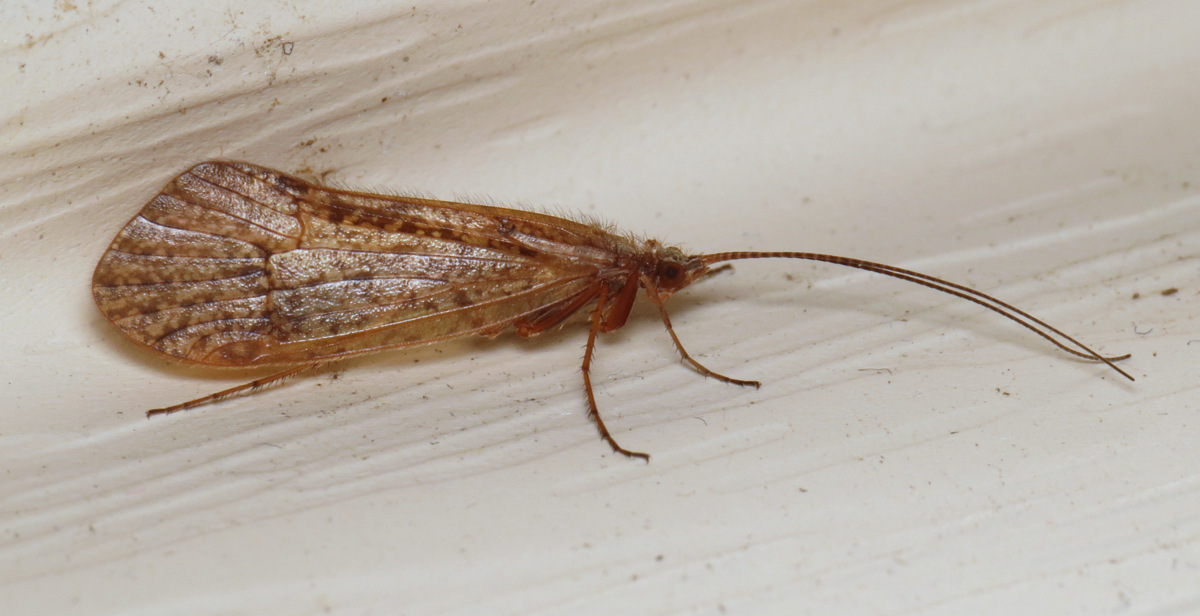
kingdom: Animalia
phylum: Arthropoda
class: Insecta
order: Trichoptera
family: Limnephilidae
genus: Frenesia
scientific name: Frenesia missa
